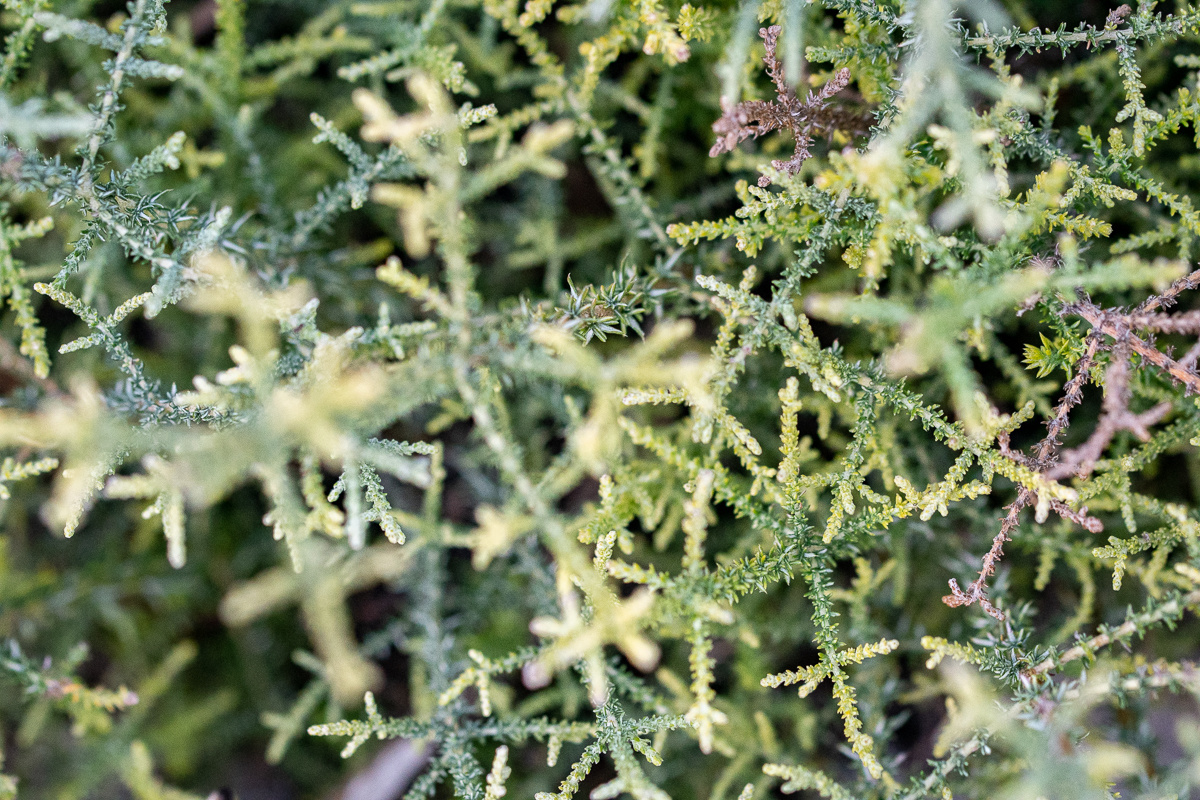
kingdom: Plantae
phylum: Tracheophyta
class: Magnoliopsida
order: Asterales
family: Asteraceae
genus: Seriphium
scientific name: Seriphium plumosum
